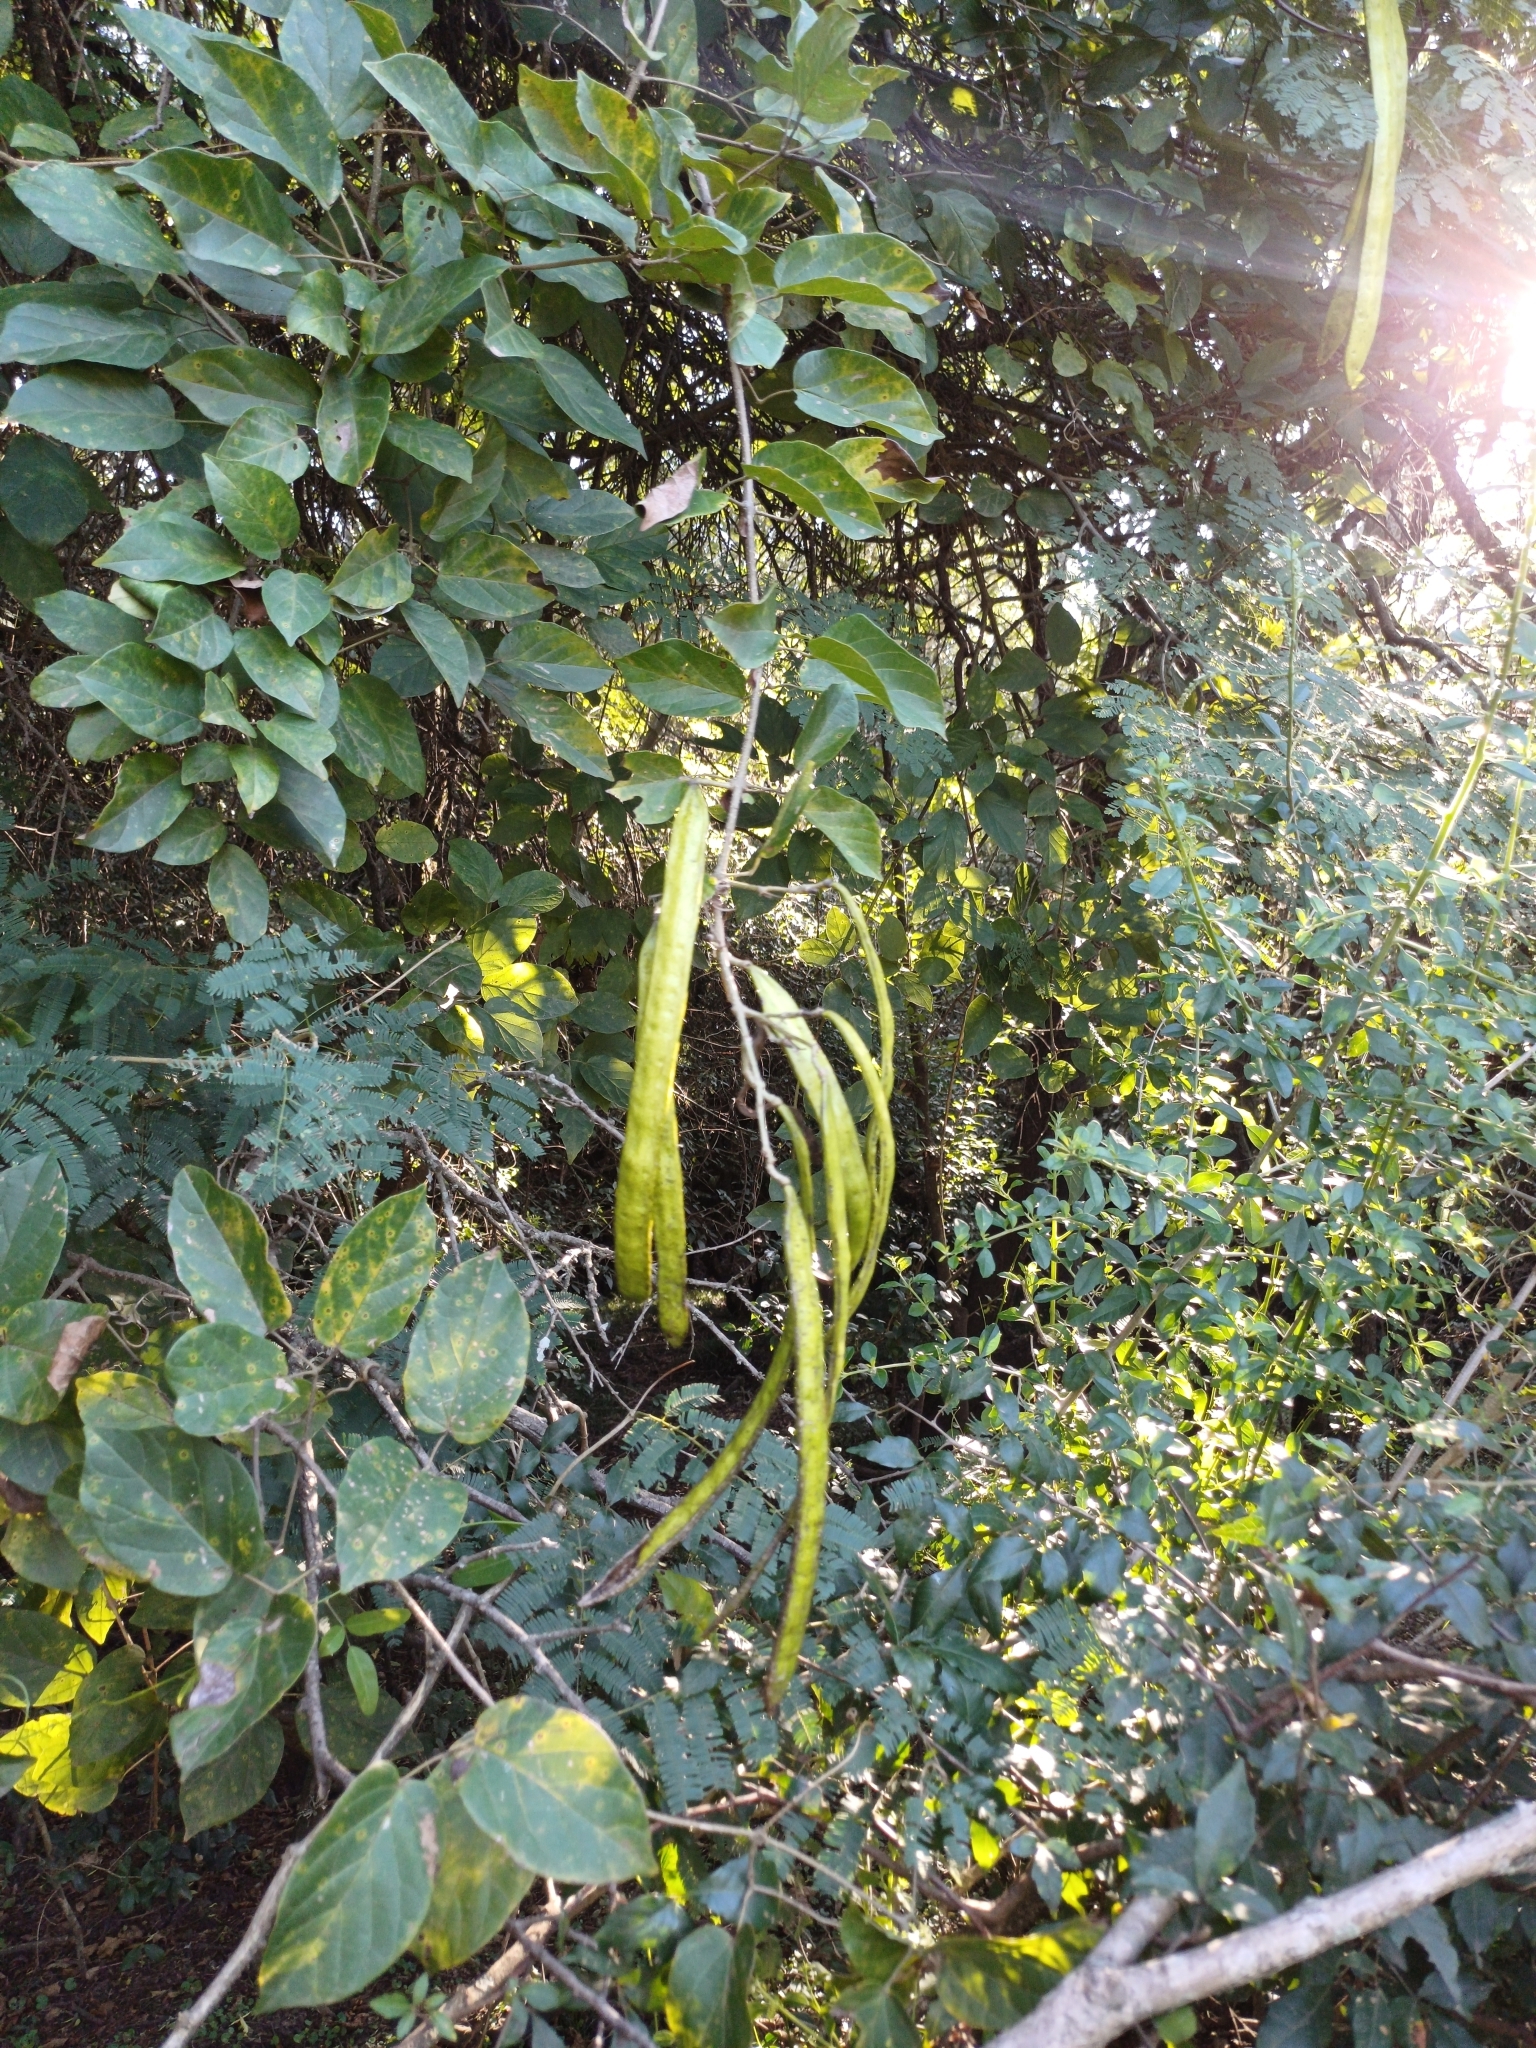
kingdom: Plantae
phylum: Tracheophyta
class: Magnoliopsida
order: Lamiales
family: Bignoniaceae
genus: Dolichandra
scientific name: Dolichandra unguis-cati
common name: Catclaw vine
